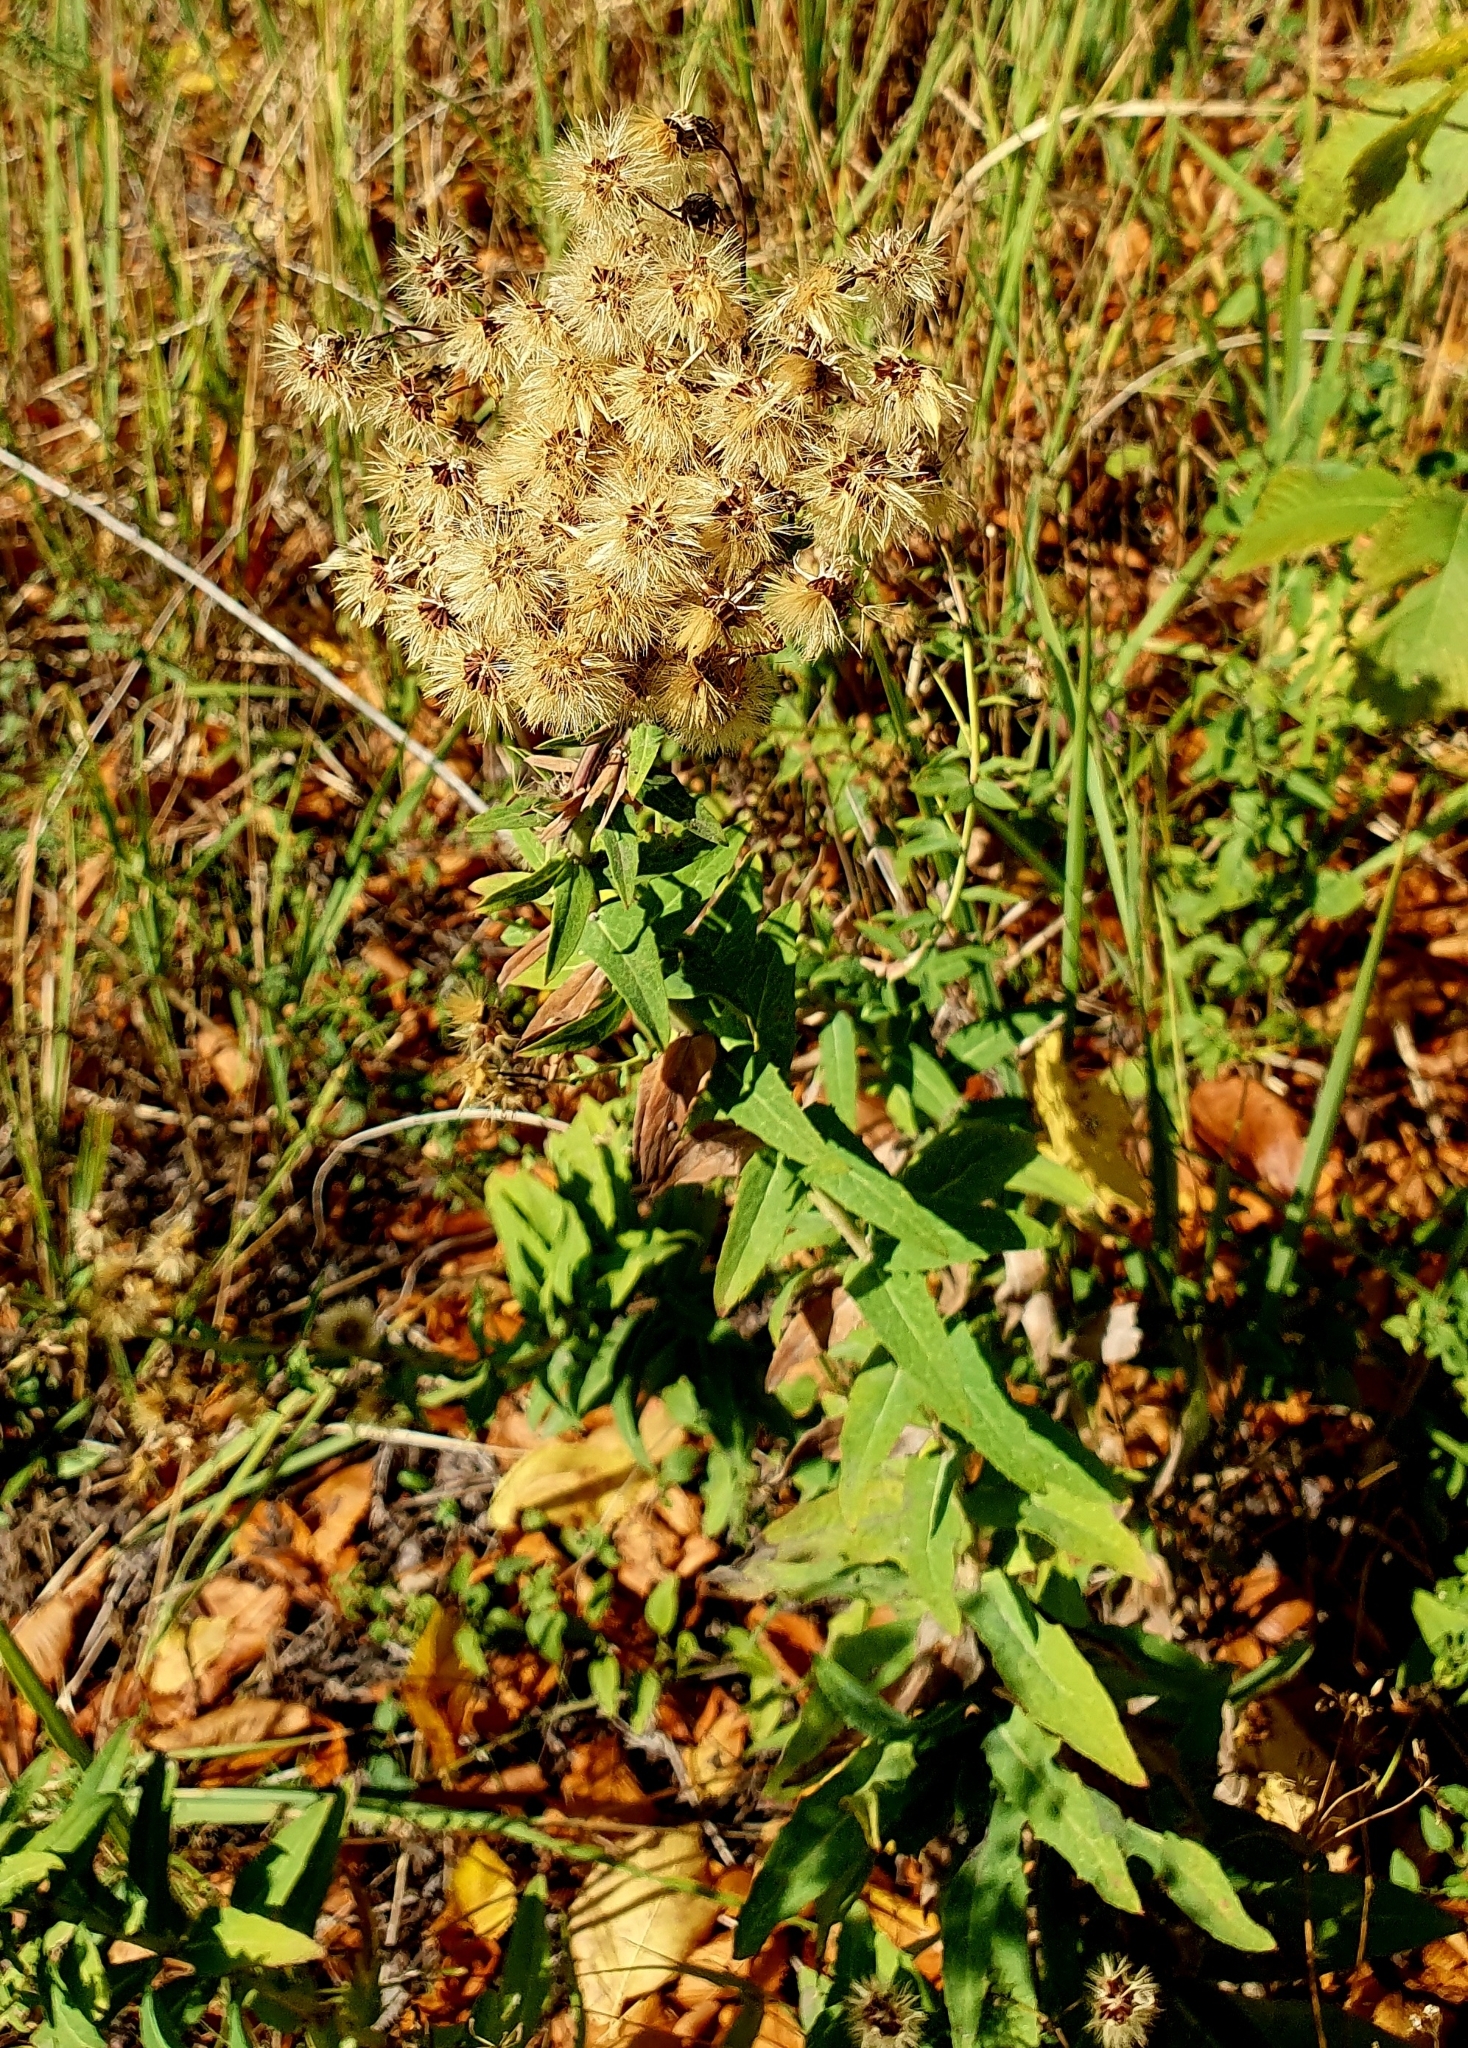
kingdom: Plantae
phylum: Tracheophyta
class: Magnoliopsida
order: Asterales
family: Asteraceae
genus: Hieracium
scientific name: Hieracium robustum
